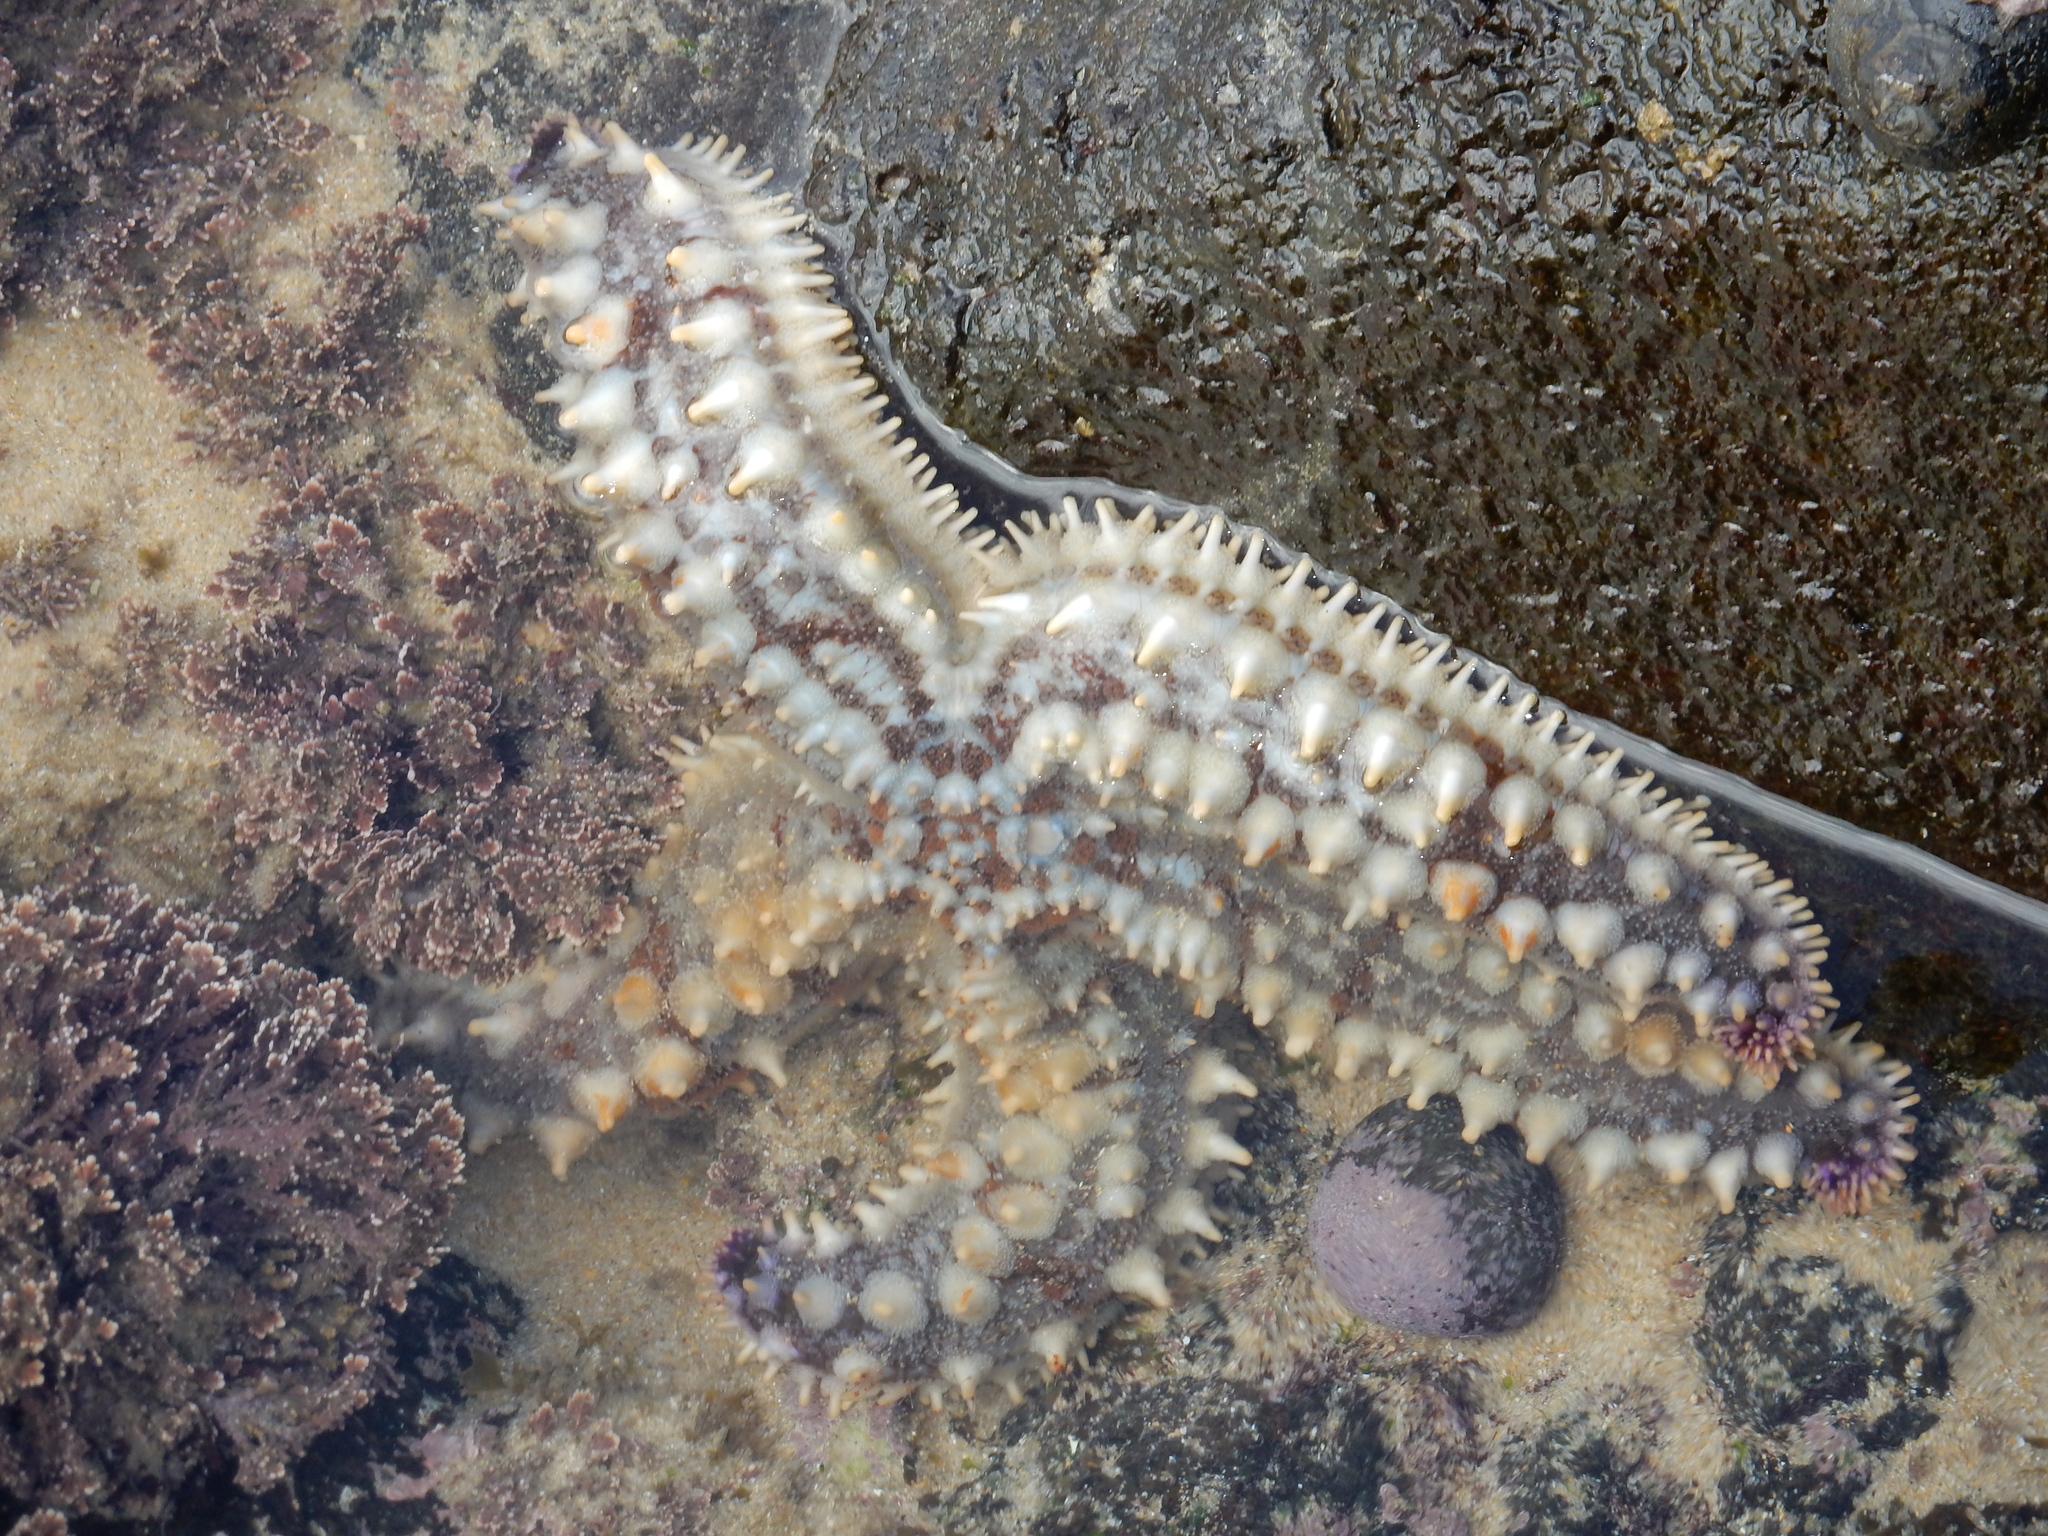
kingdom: Animalia
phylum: Echinodermata
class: Asteroidea
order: Forcipulatida
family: Asteriidae
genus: Marthasterias
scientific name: Marthasterias africana
